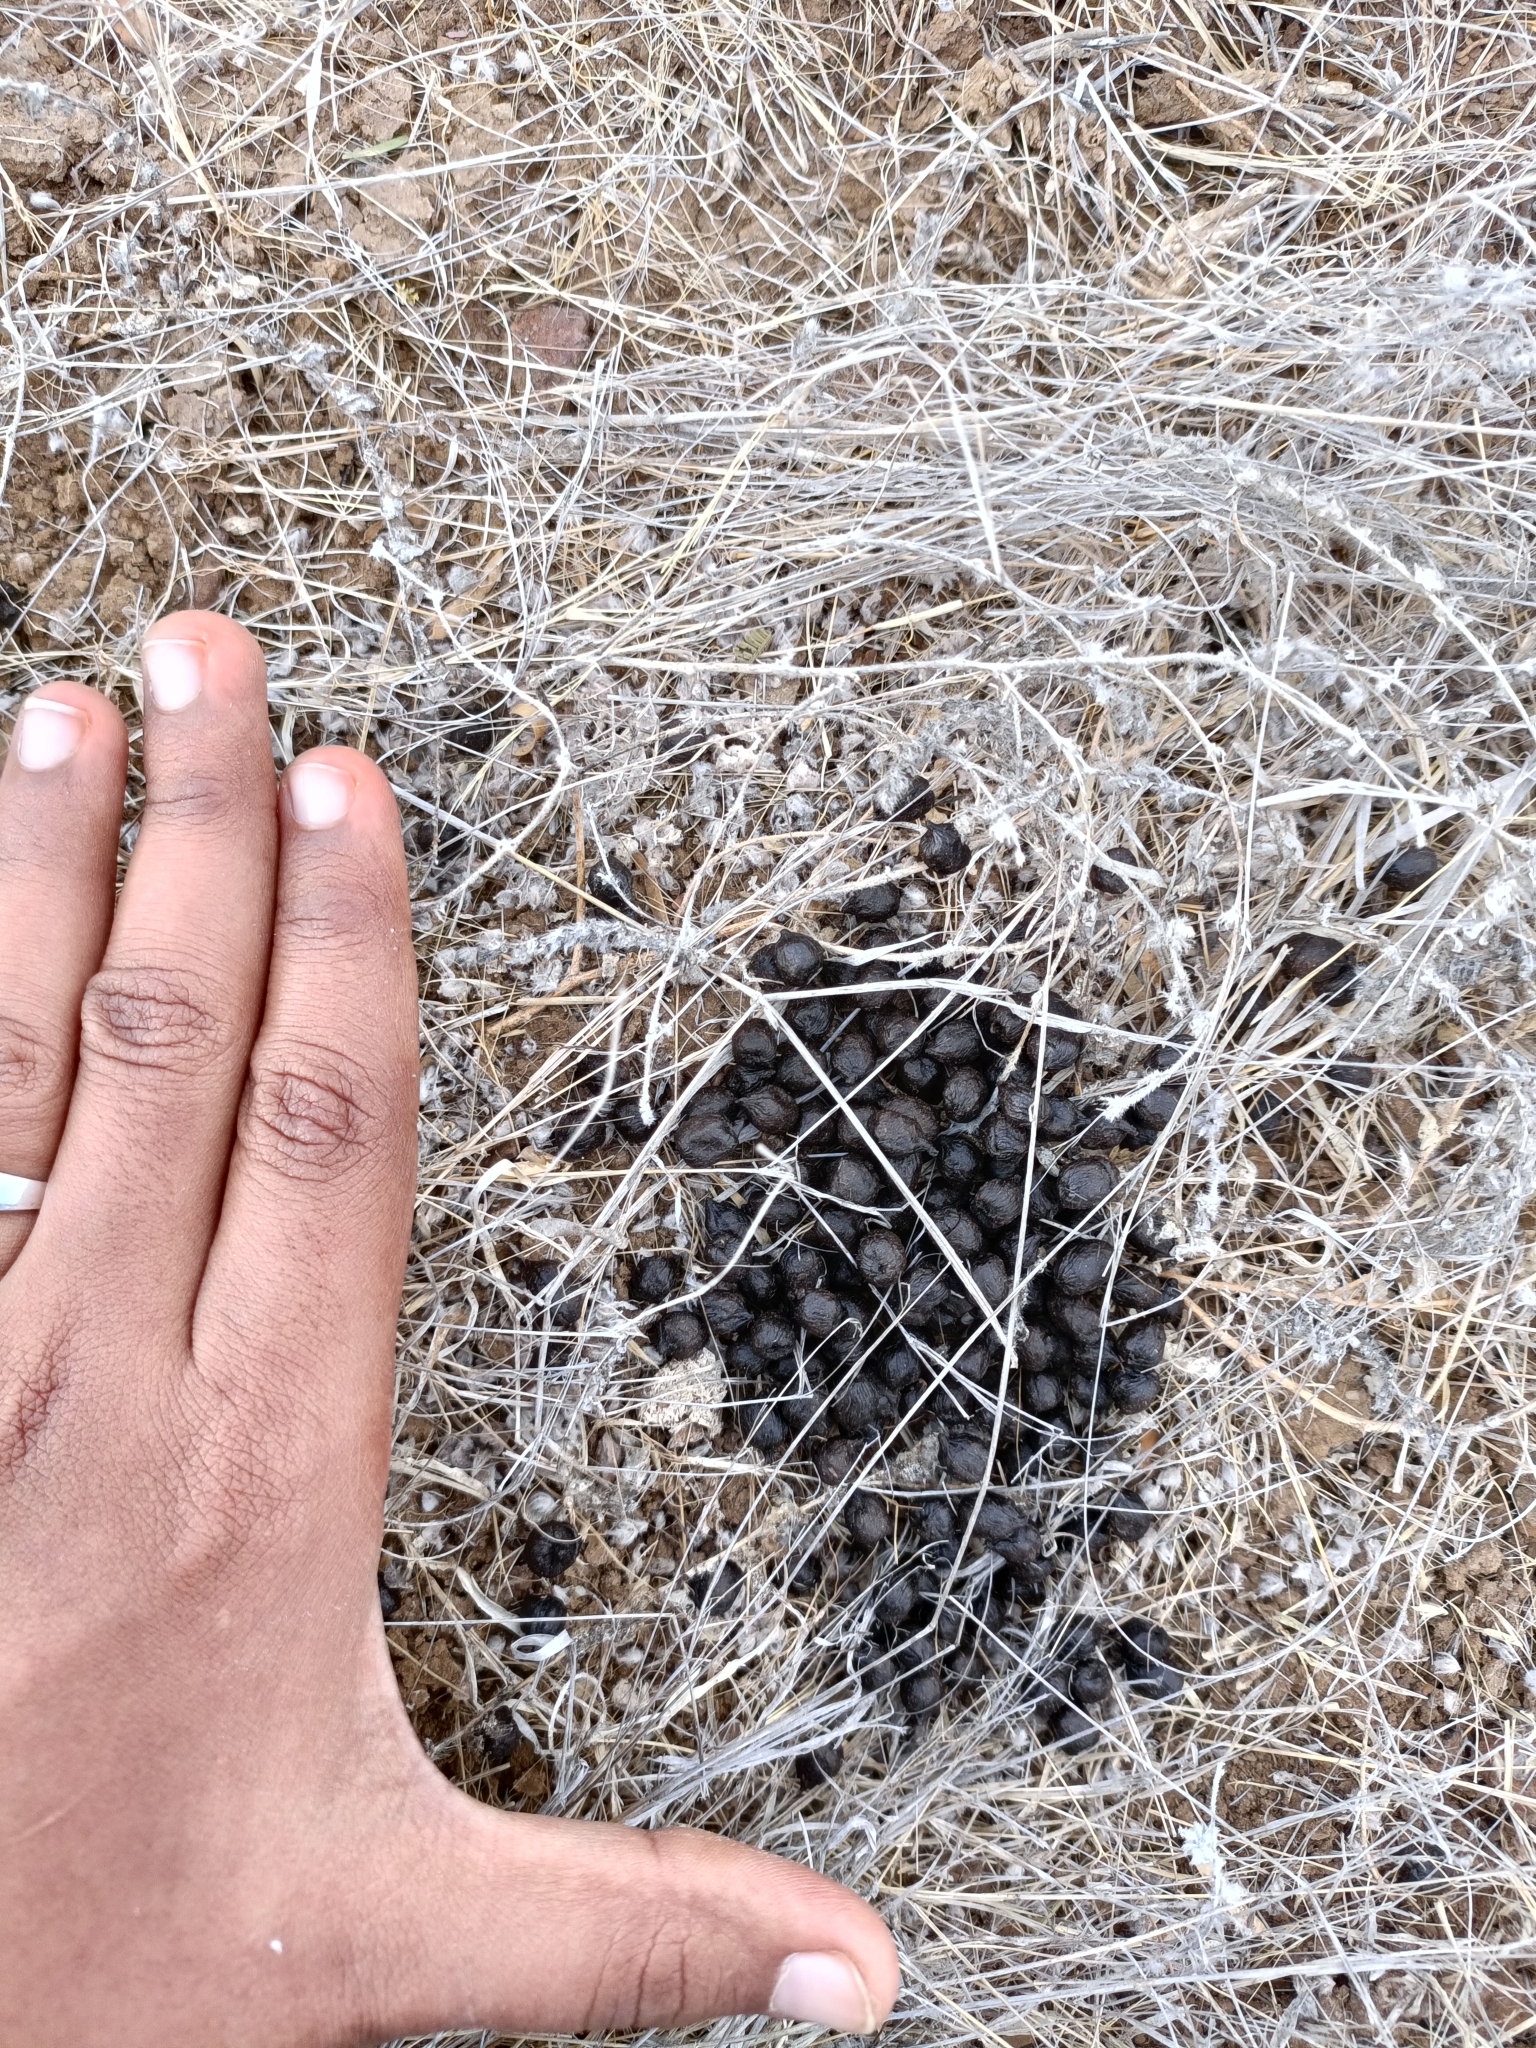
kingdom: Animalia
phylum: Chordata
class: Mammalia
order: Artiodactyla
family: Bovidae
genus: Gazella
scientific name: Gazella bennettii
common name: Indian gazelle
